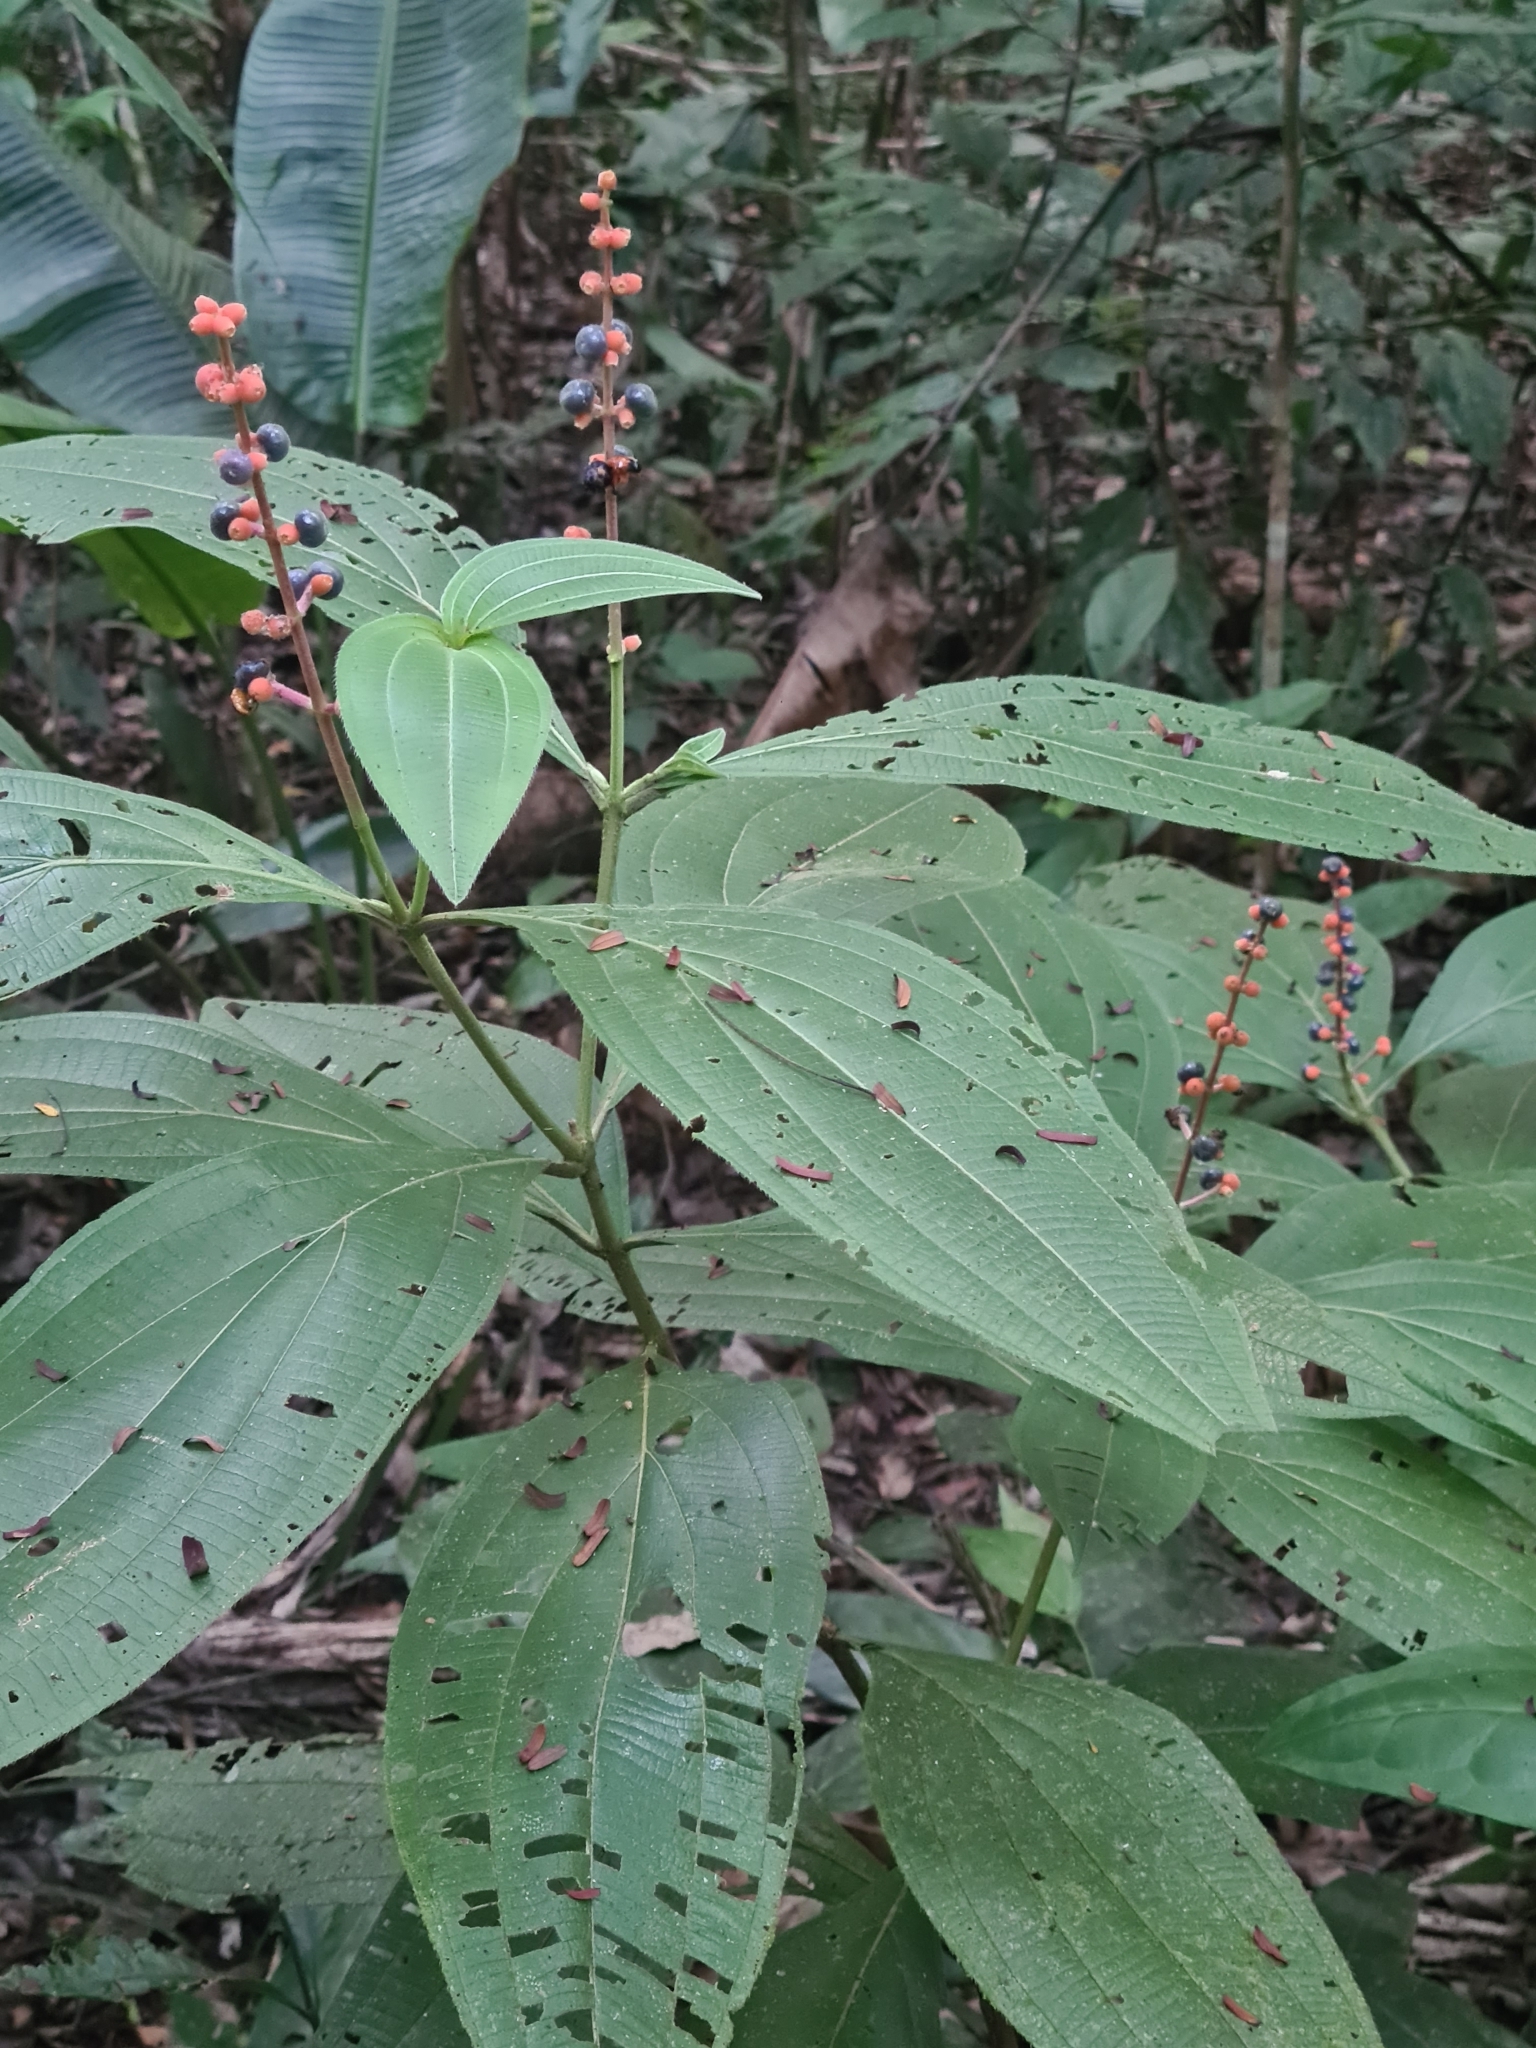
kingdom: Plantae
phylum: Tracheophyta
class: Magnoliopsida
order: Myrtales
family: Melastomataceae
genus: Miconia
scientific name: Miconia nervosa
